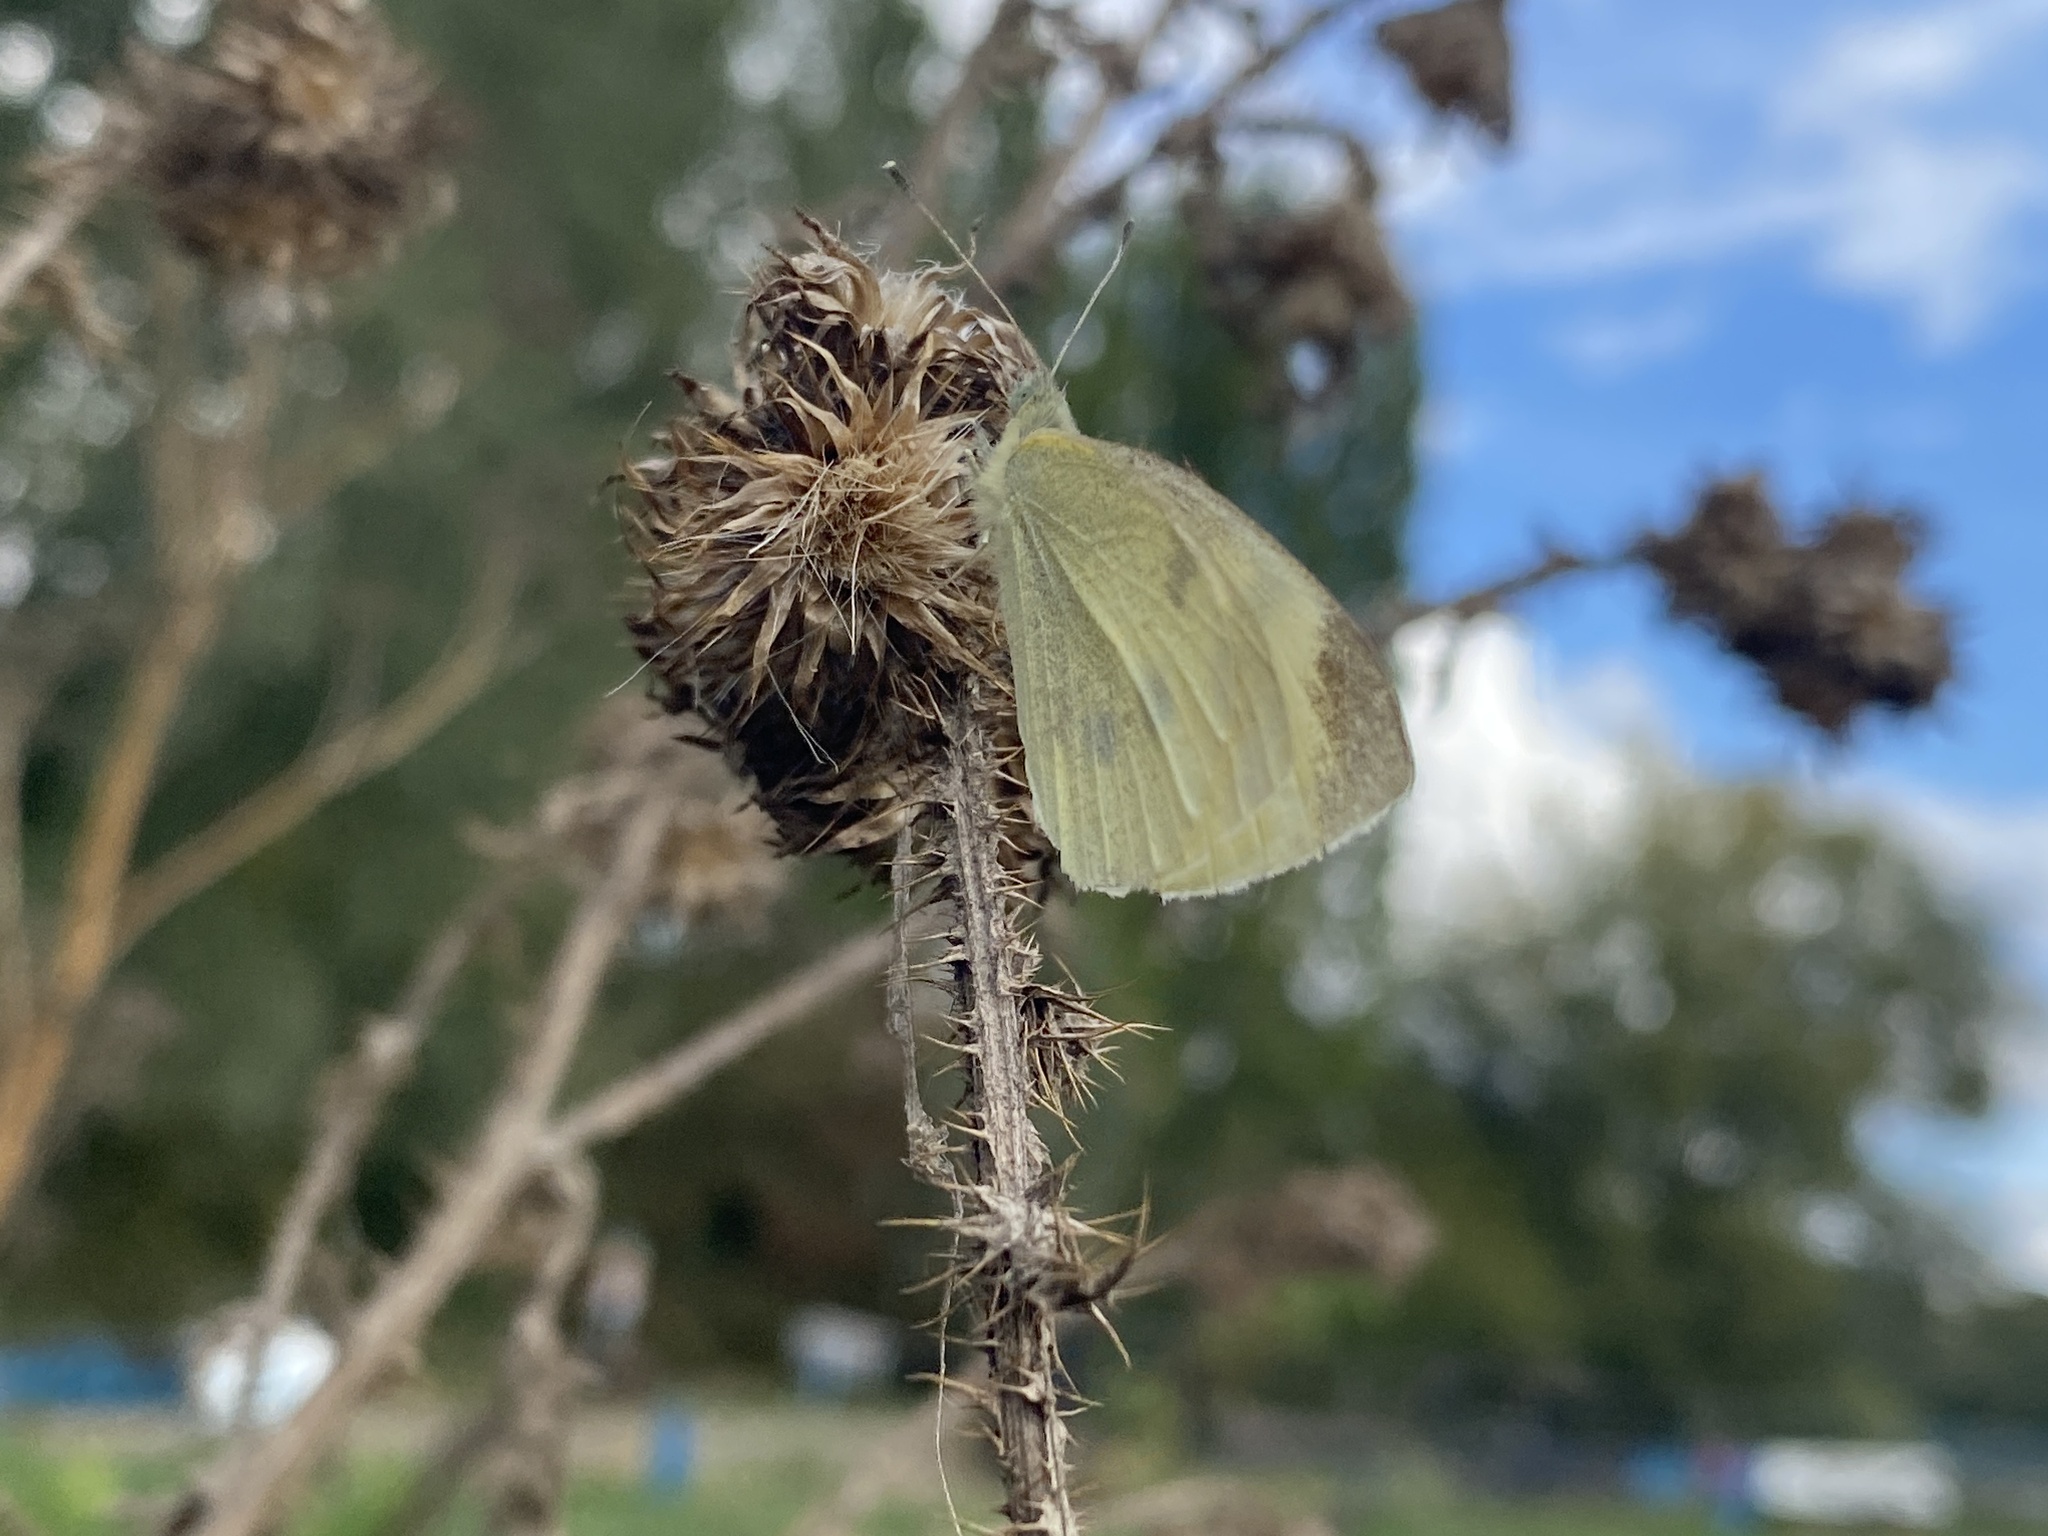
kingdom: Animalia
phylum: Arthropoda
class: Insecta
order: Lepidoptera
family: Pieridae
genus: Pieris
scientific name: Pieris rapae
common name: Small white
